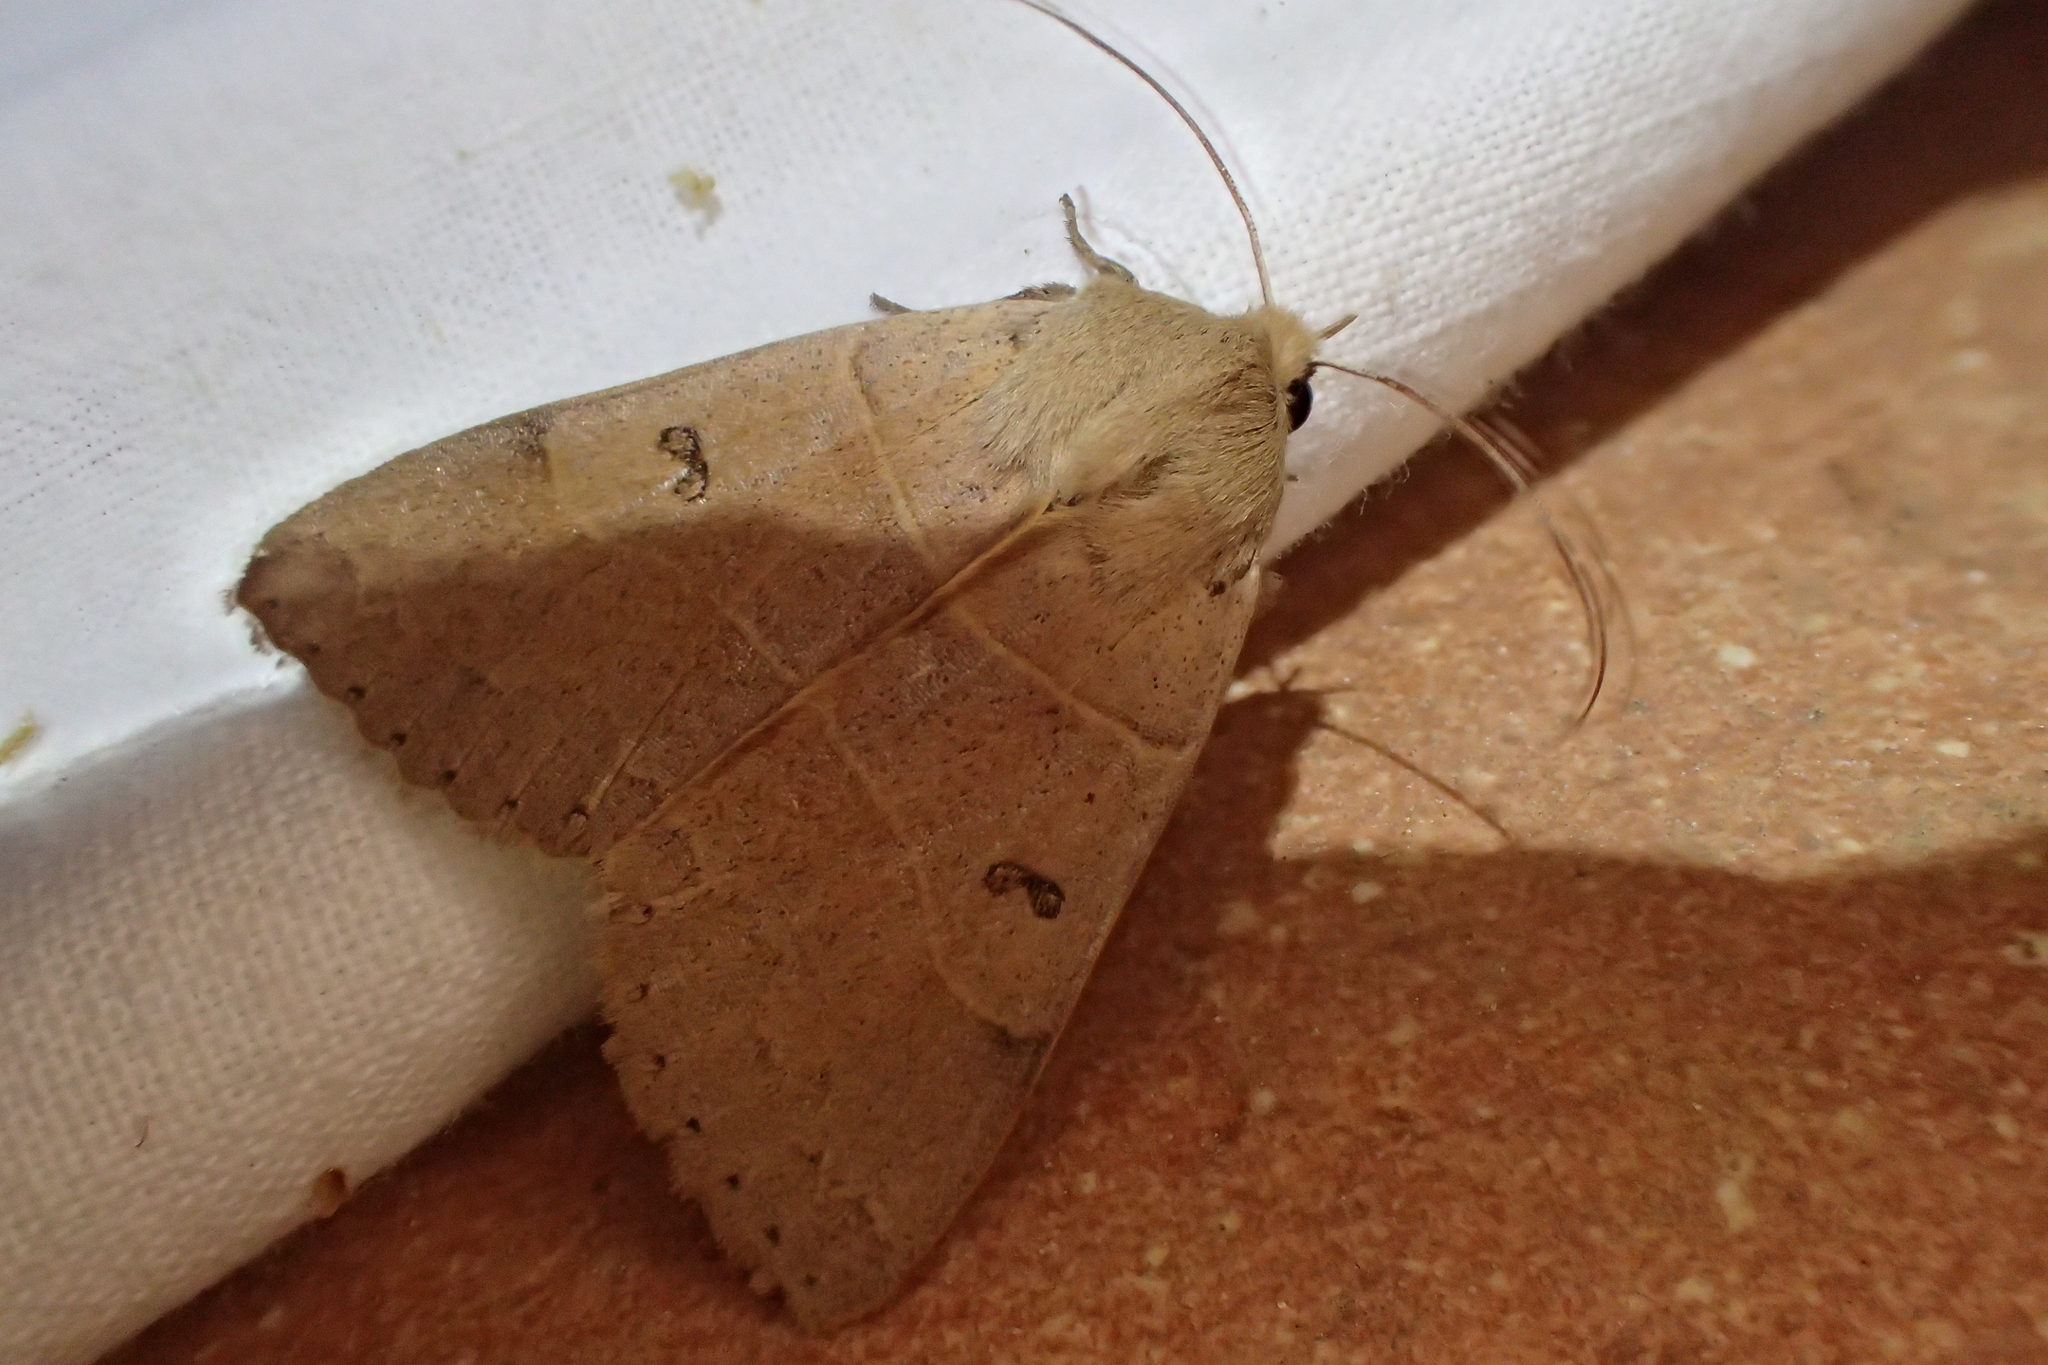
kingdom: Animalia
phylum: Arthropoda
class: Insecta
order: Lepidoptera
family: Erebidae
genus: Minucia
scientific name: Minucia lunaris
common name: Lunar double-stripe
